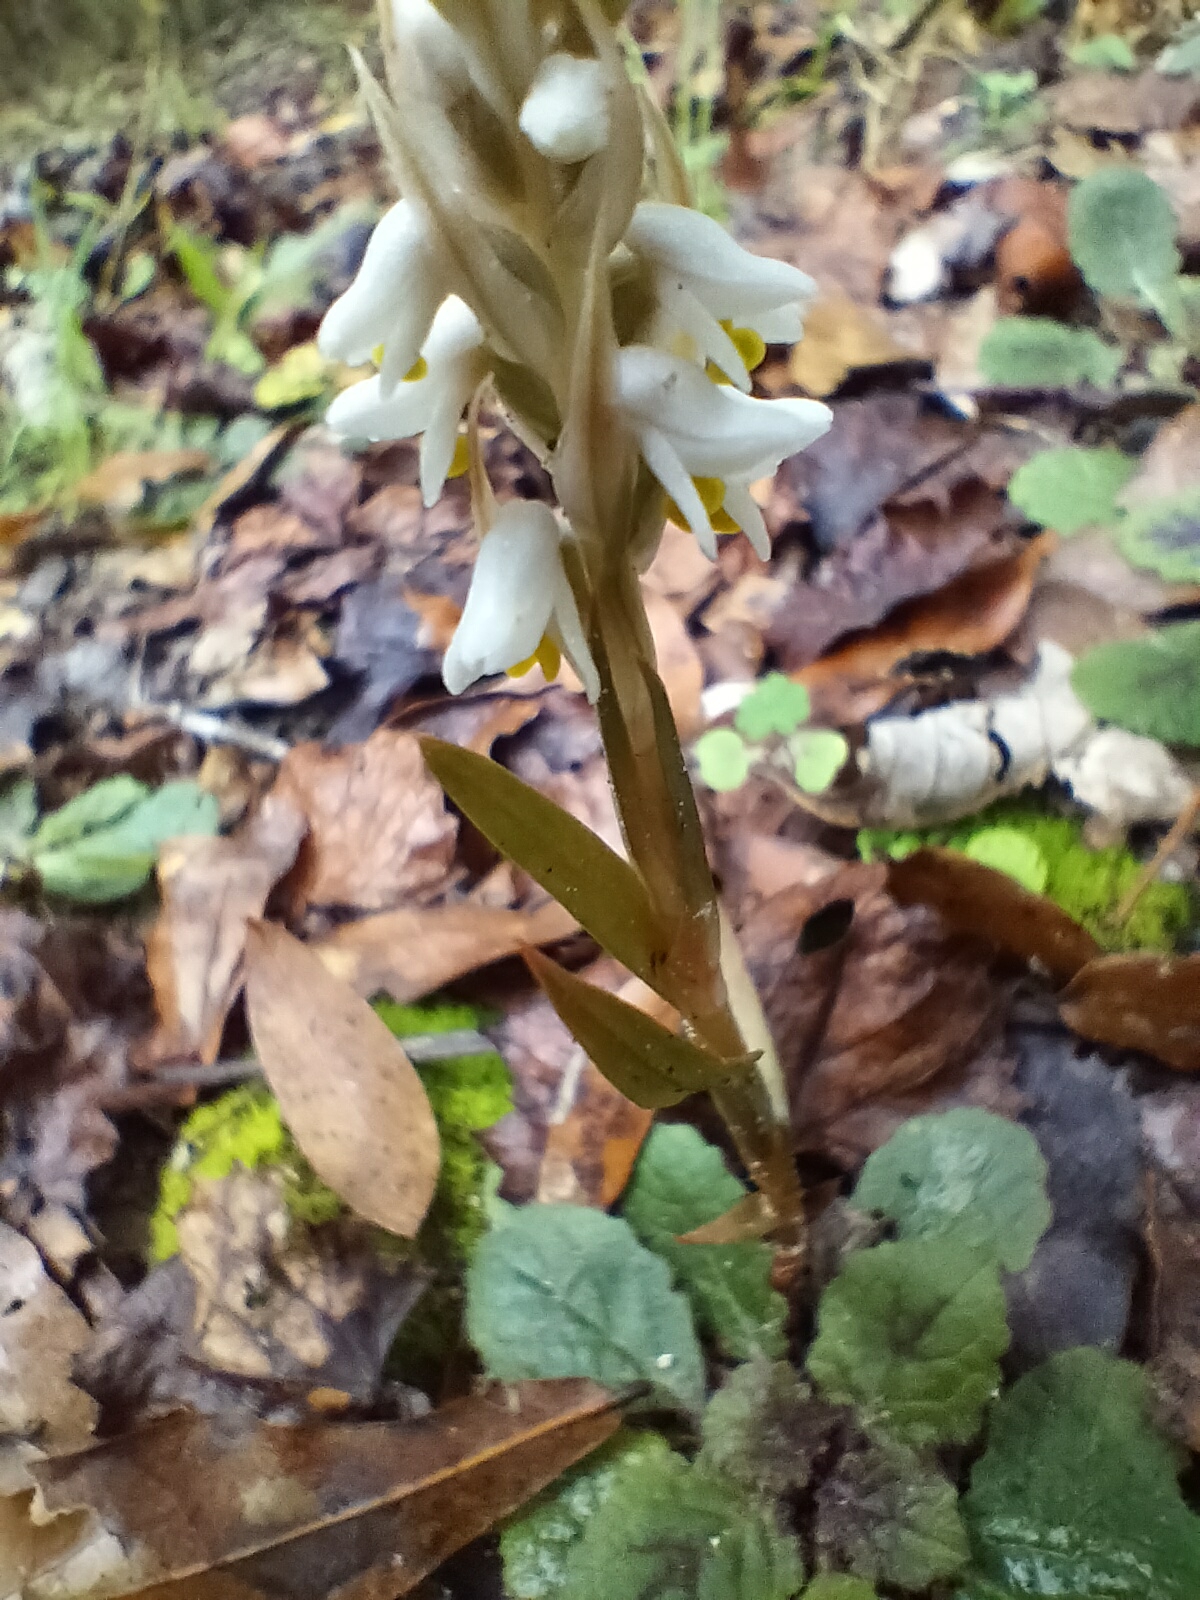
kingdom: Plantae
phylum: Tracheophyta
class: Liliopsida
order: Asparagales
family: Orchidaceae
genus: Zeuxine
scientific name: Zeuxine strateumatica
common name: Soldier's orchid
